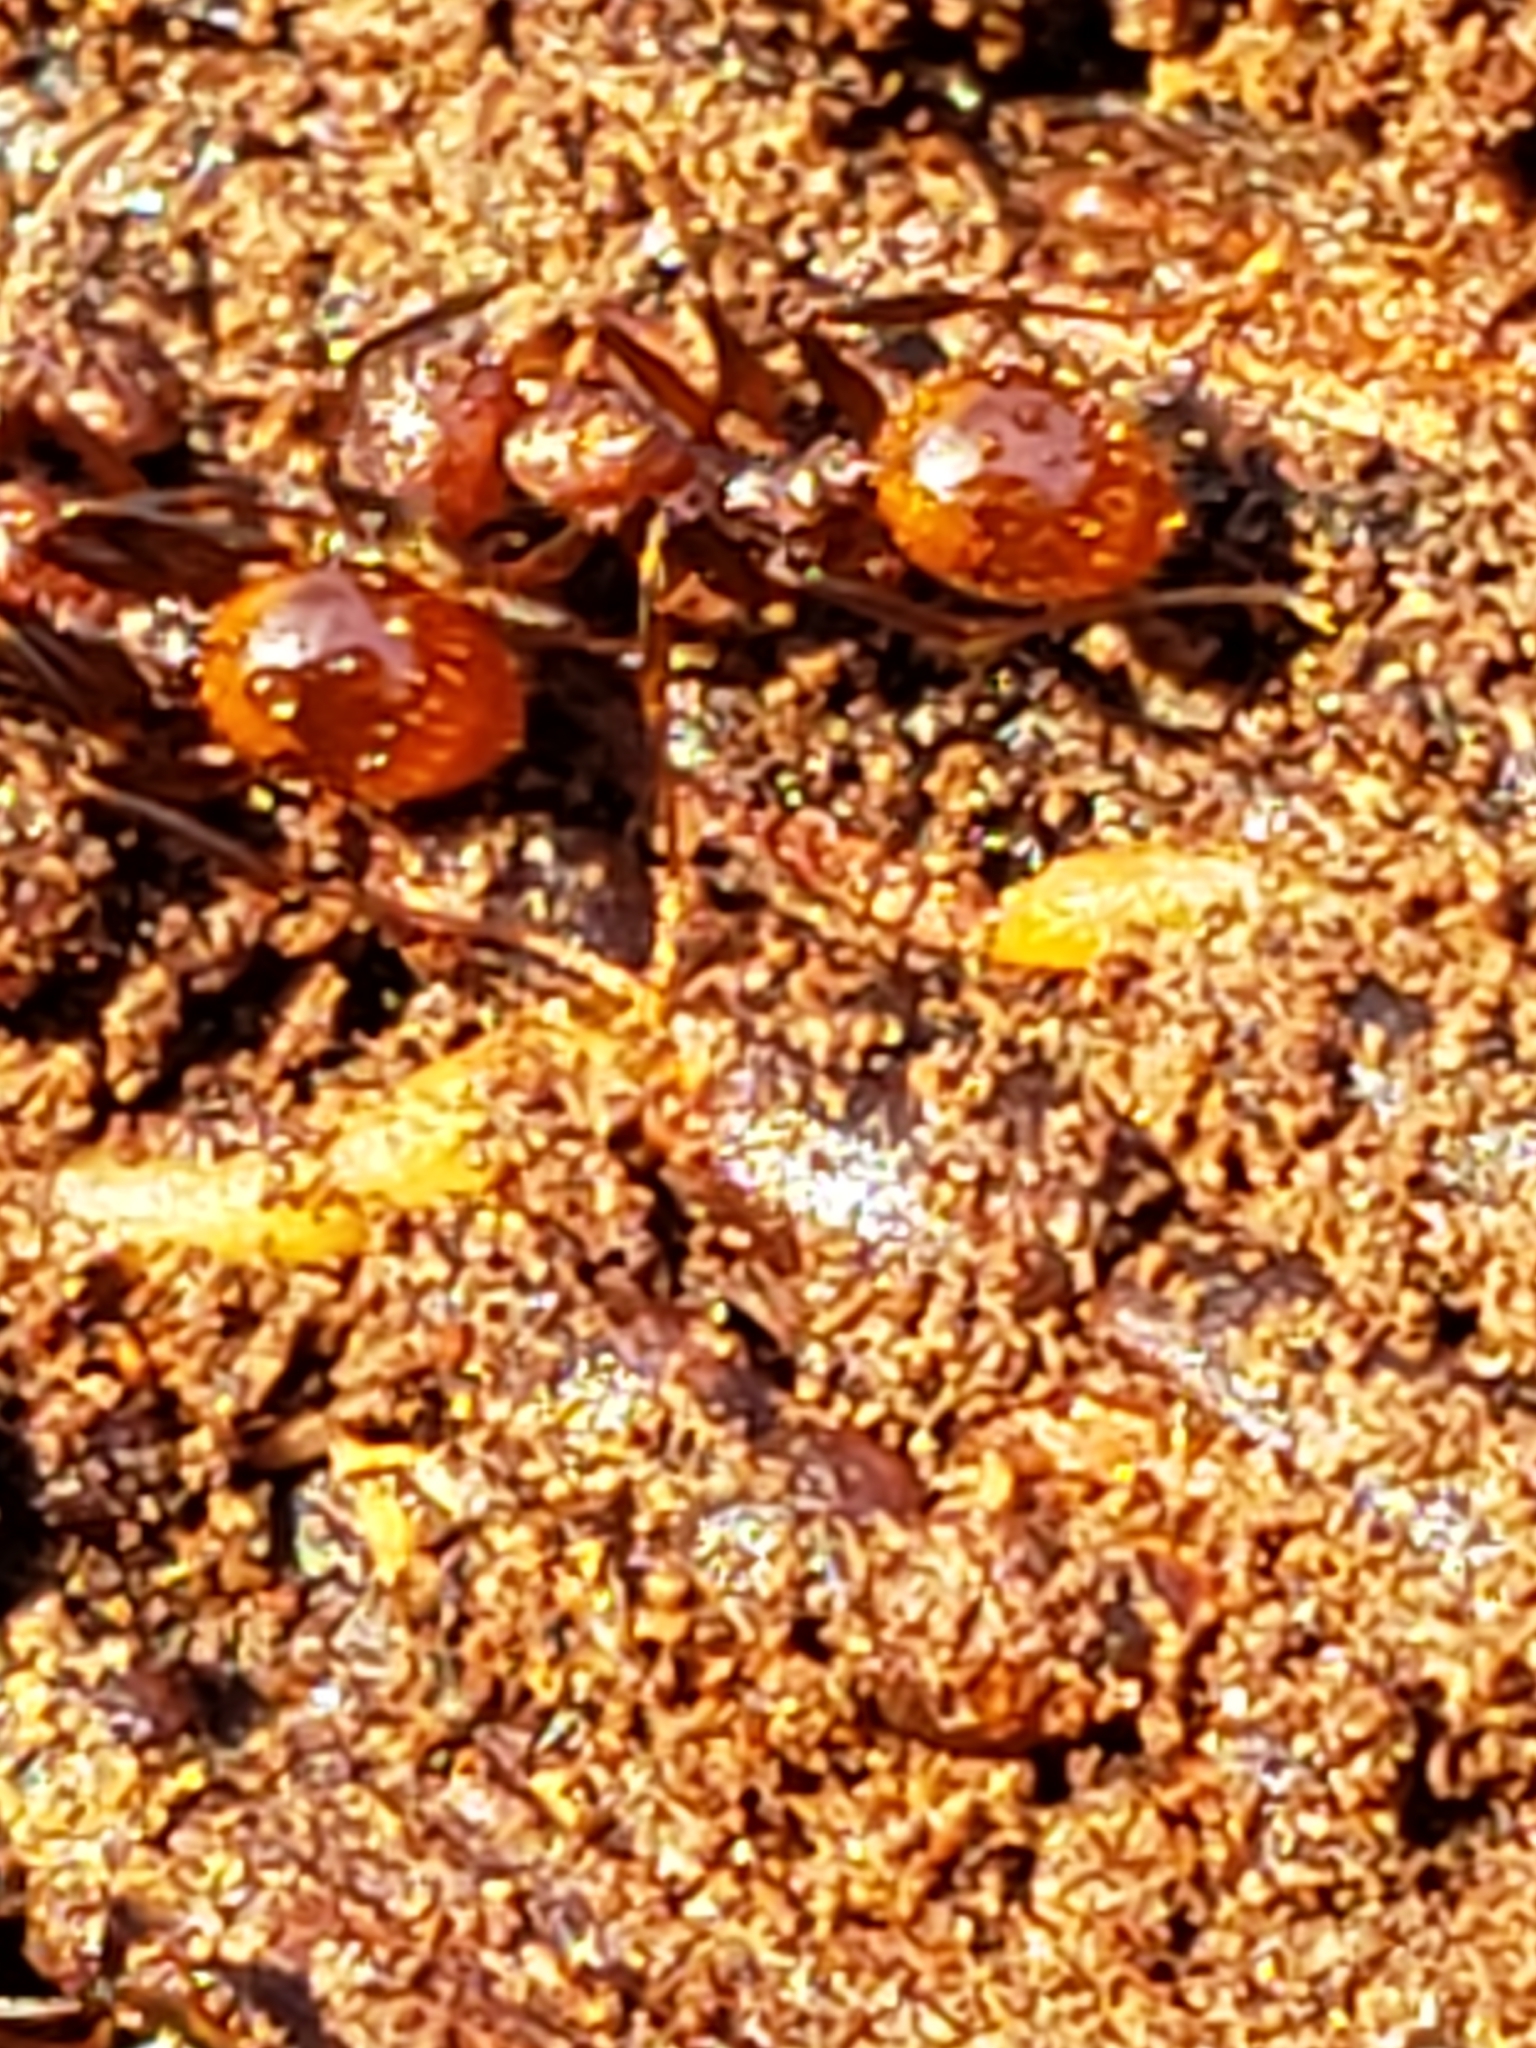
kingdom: Animalia
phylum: Arthropoda
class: Insecta
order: Hymenoptera
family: Formicidae
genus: Aphaenogaster
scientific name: Aphaenogaster fulva
